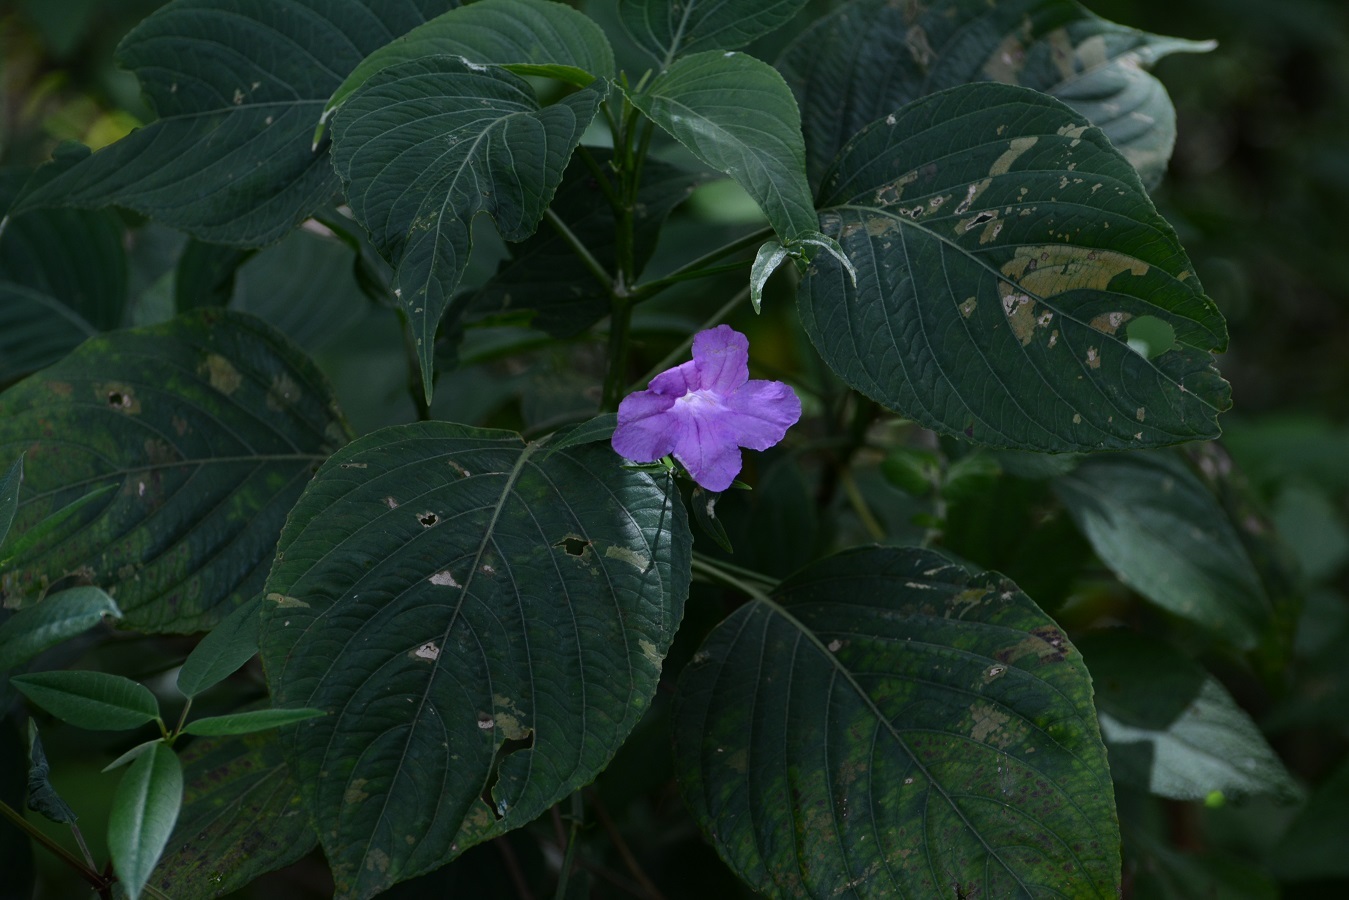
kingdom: Plantae
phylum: Tracheophyta
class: Magnoliopsida
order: Lamiales
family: Acanthaceae
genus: Ruellia
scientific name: Ruellia breedlovei
